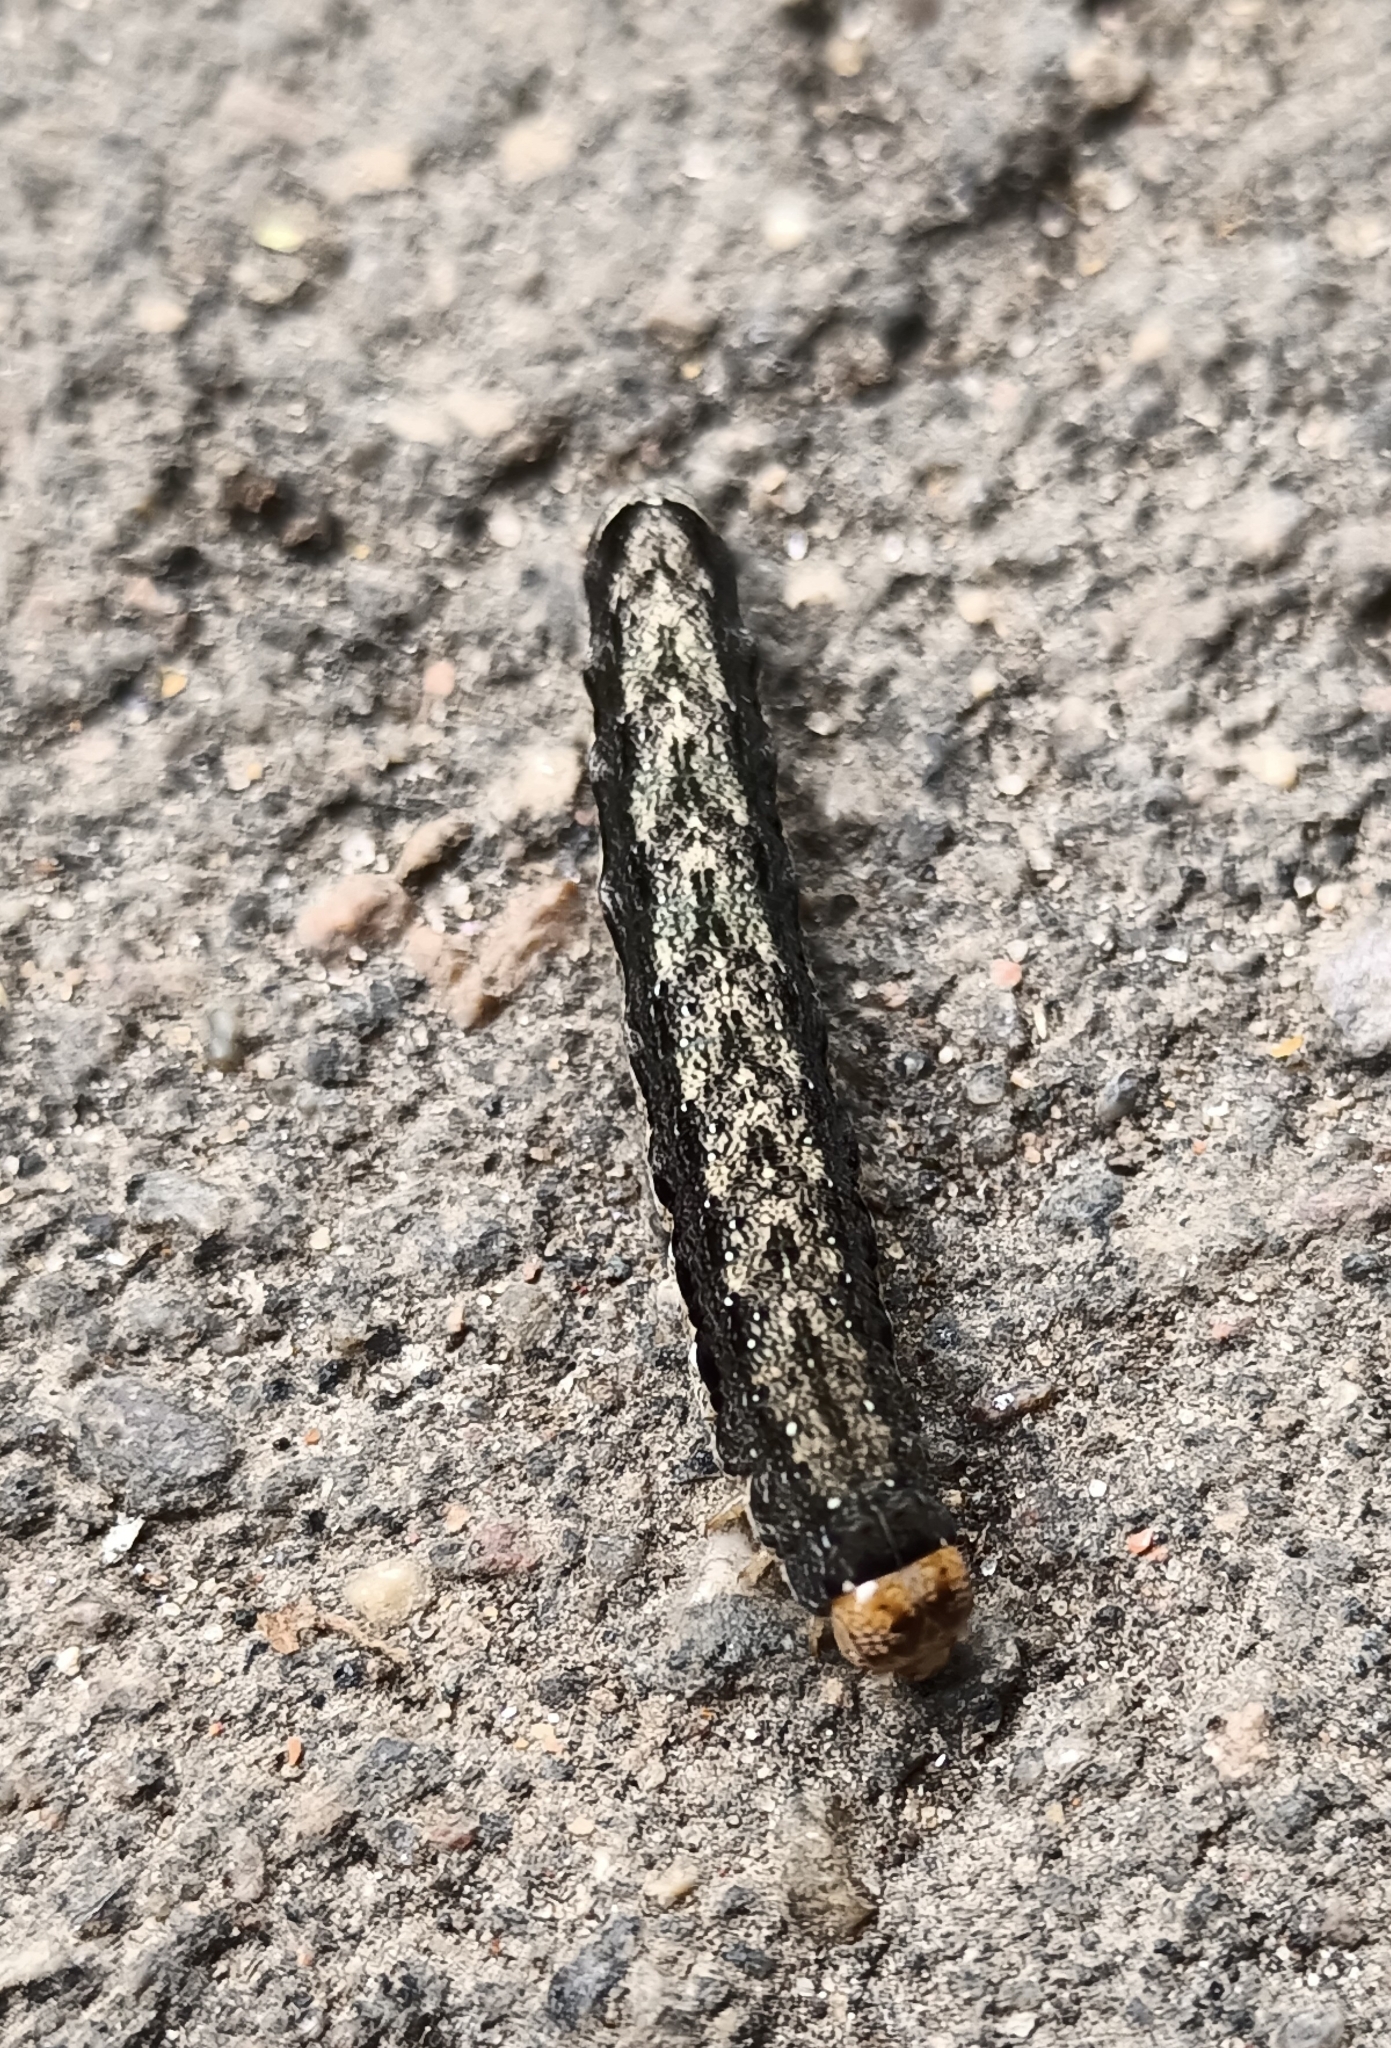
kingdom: Animalia
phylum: Arthropoda
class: Insecta
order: Lepidoptera
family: Noctuidae
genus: Anorthoa
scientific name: Anorthoa munda
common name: Twin-spotted quaker
